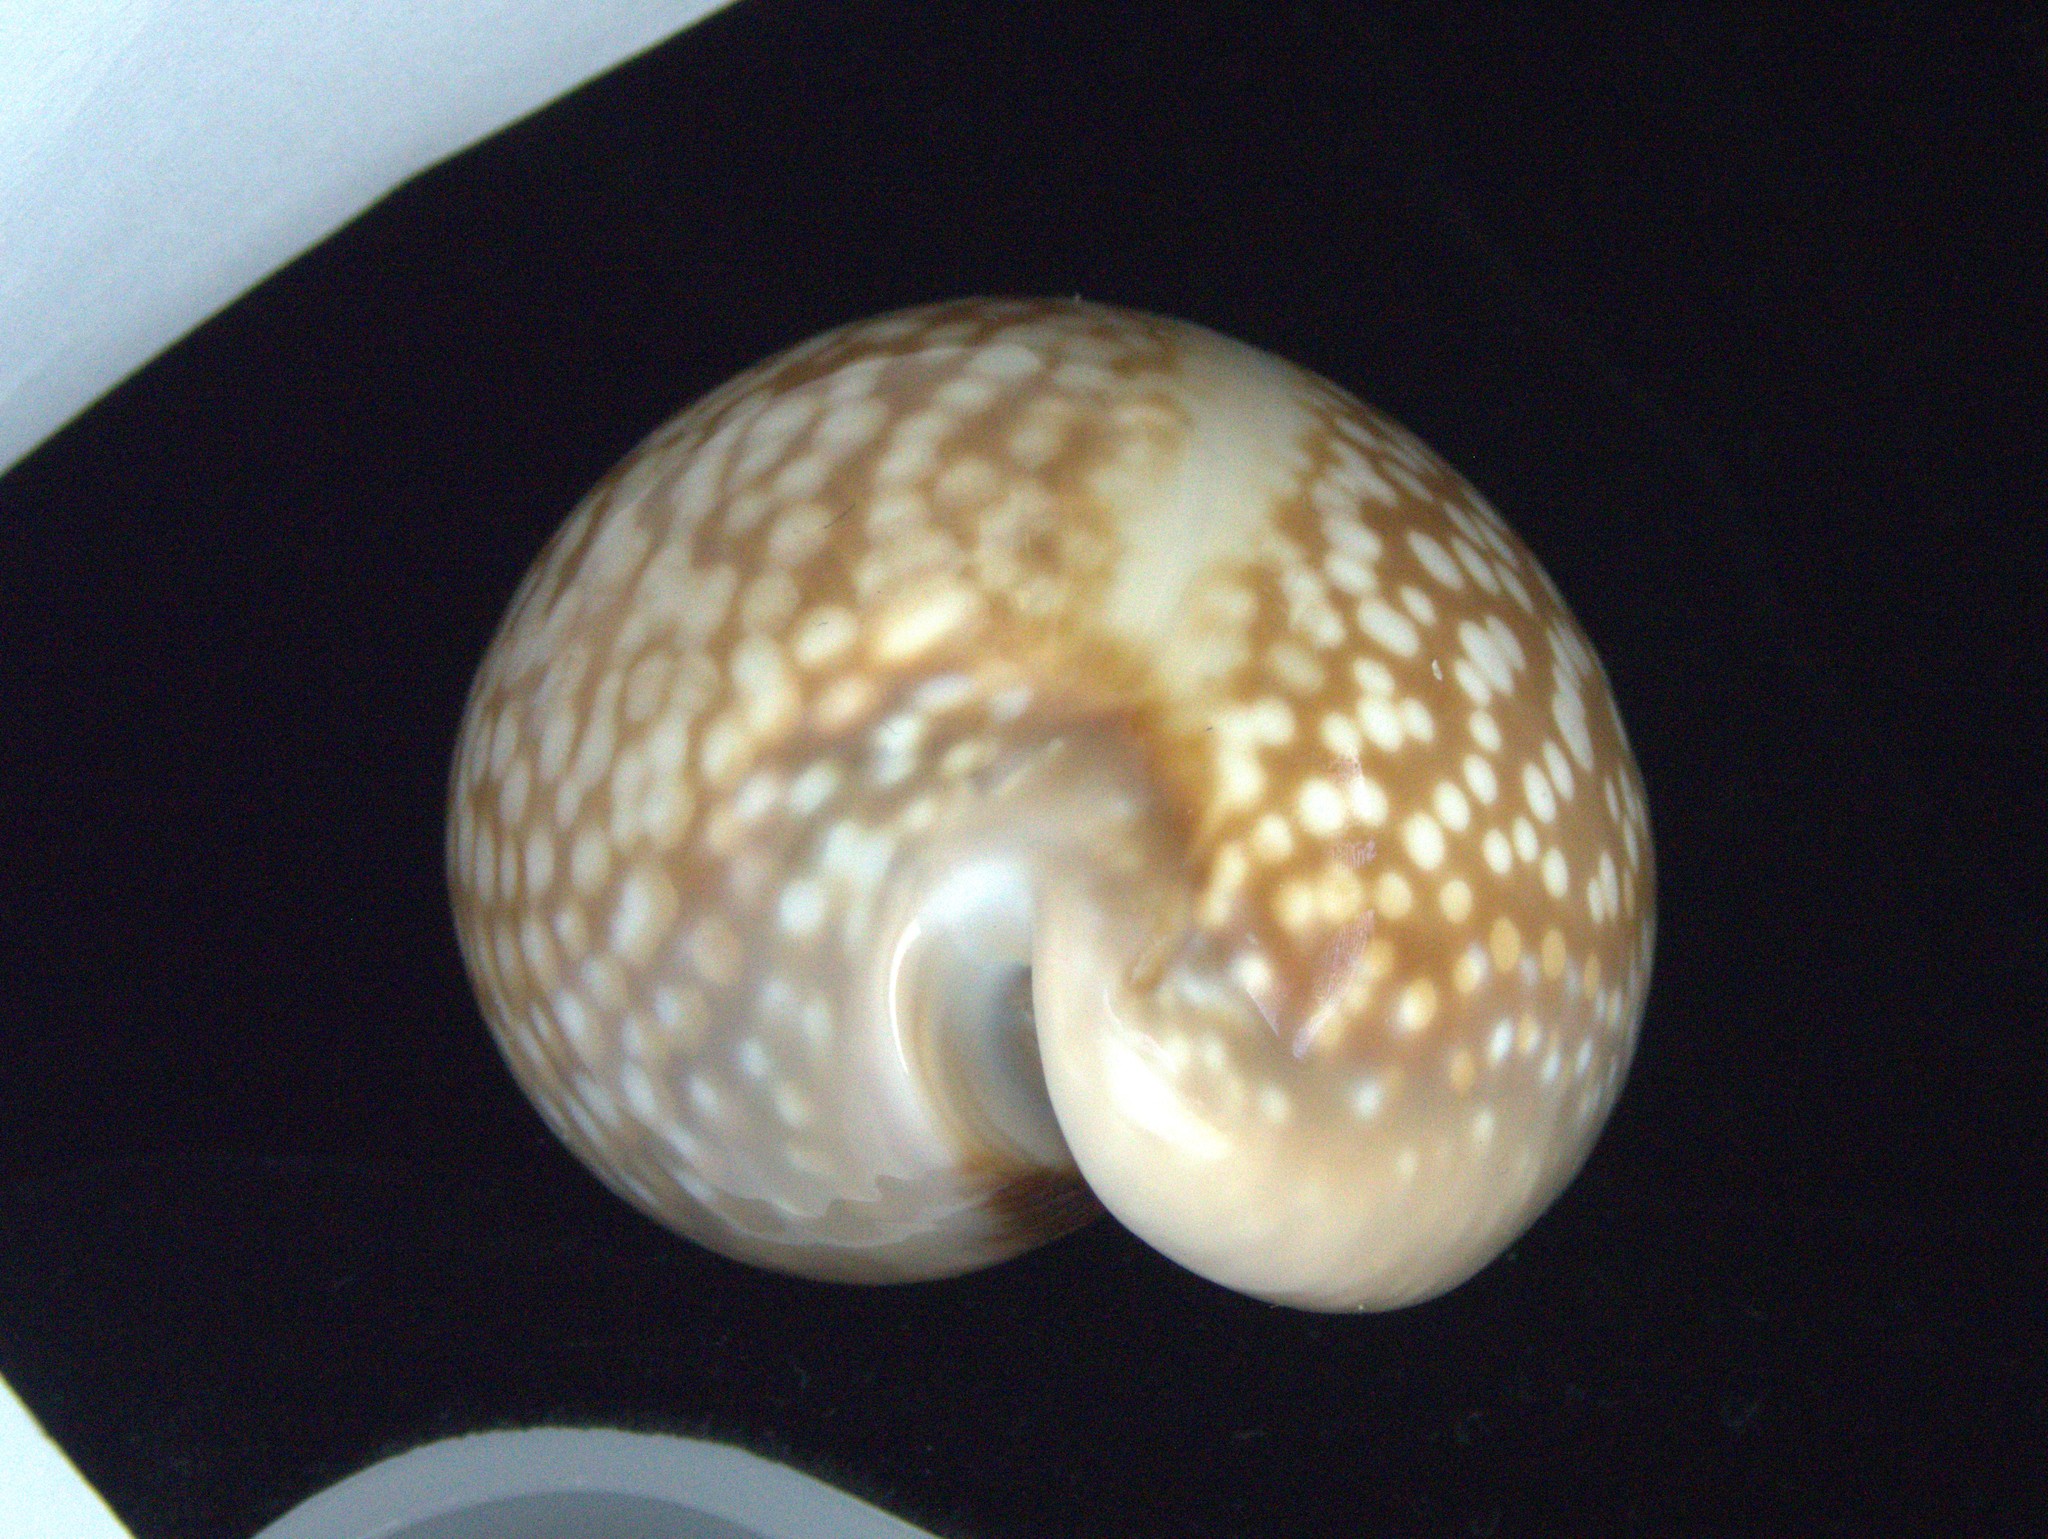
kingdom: Animalia
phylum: Mollusca
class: Gastropoda
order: Littorinimorpha
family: Cypraeidae
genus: Macrocypraea
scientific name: Macrocypraea cervus
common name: Atlantic deer cowrie
